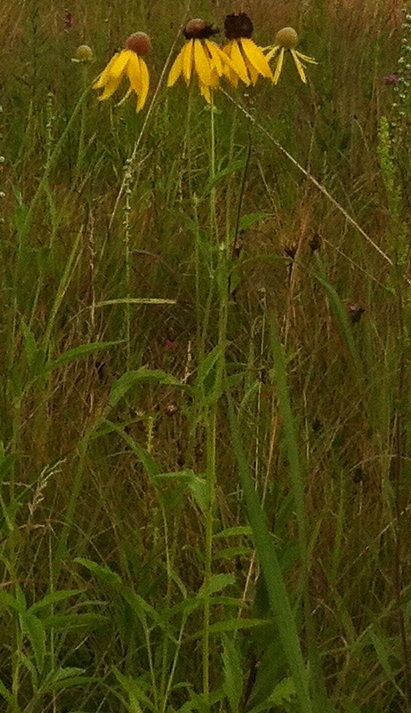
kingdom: Plantae
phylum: Tracheophyta
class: Magnoliopsida
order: Asterales
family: Asteraceae
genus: Ratibida
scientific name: Ratibida pinnata
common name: Drooping prairie-coneflower
